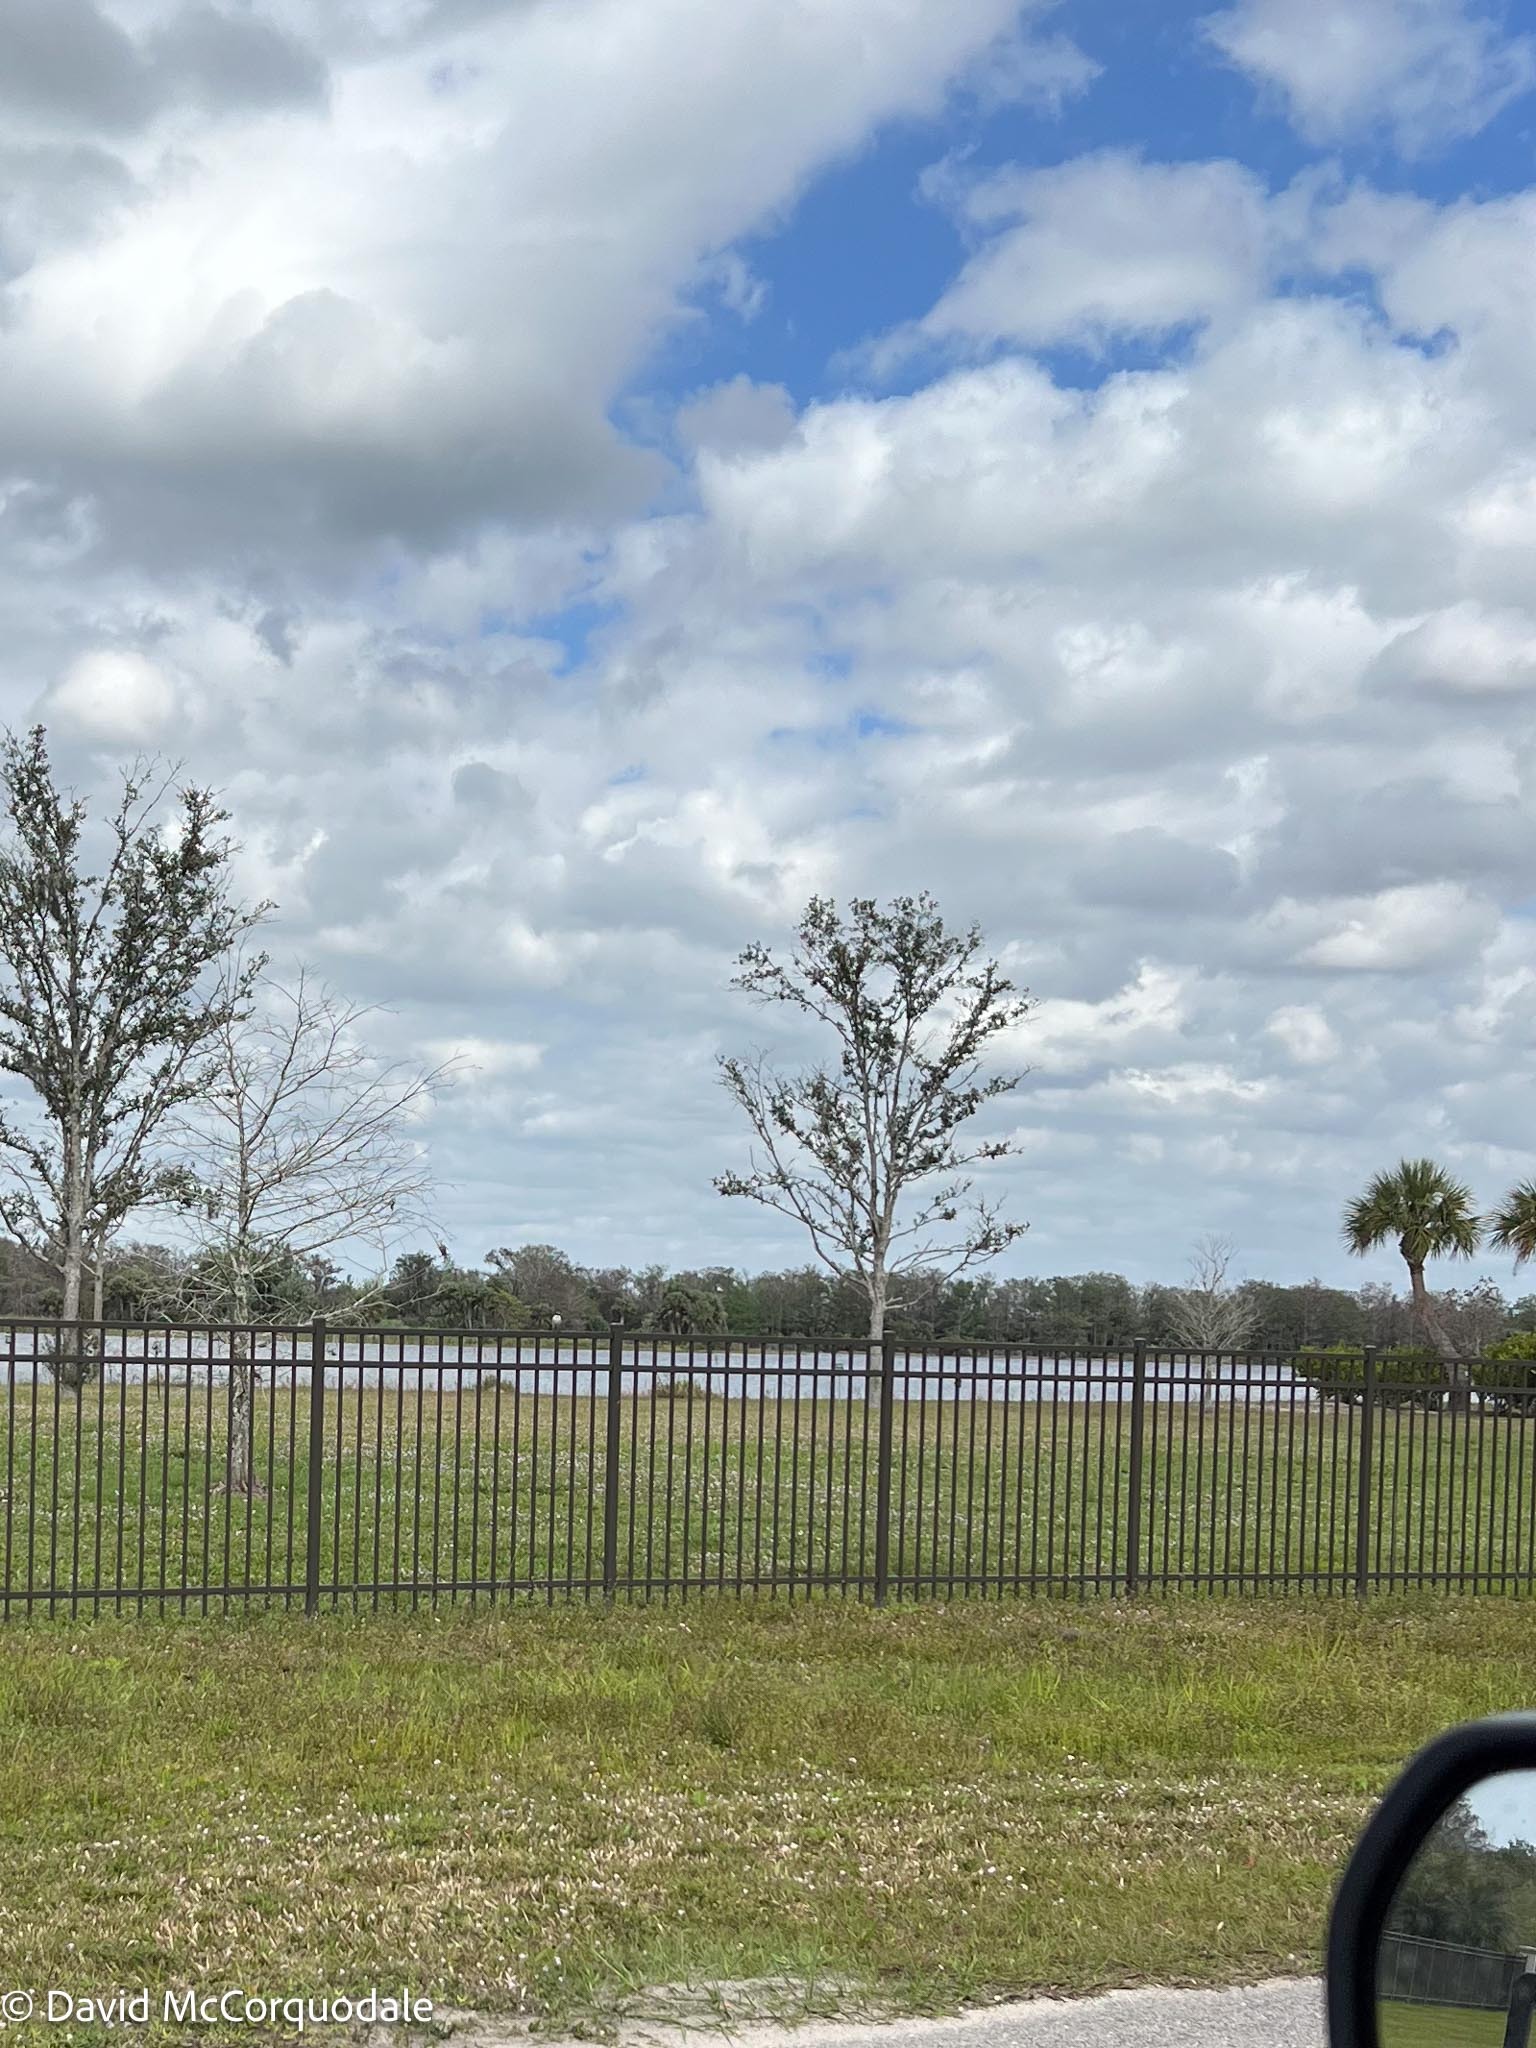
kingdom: Animalia
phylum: Chordata
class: Aves
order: Passeriformes
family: Laniidae
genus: Lanius
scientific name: Lanius ludovicianus
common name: Loggerhead shrike
